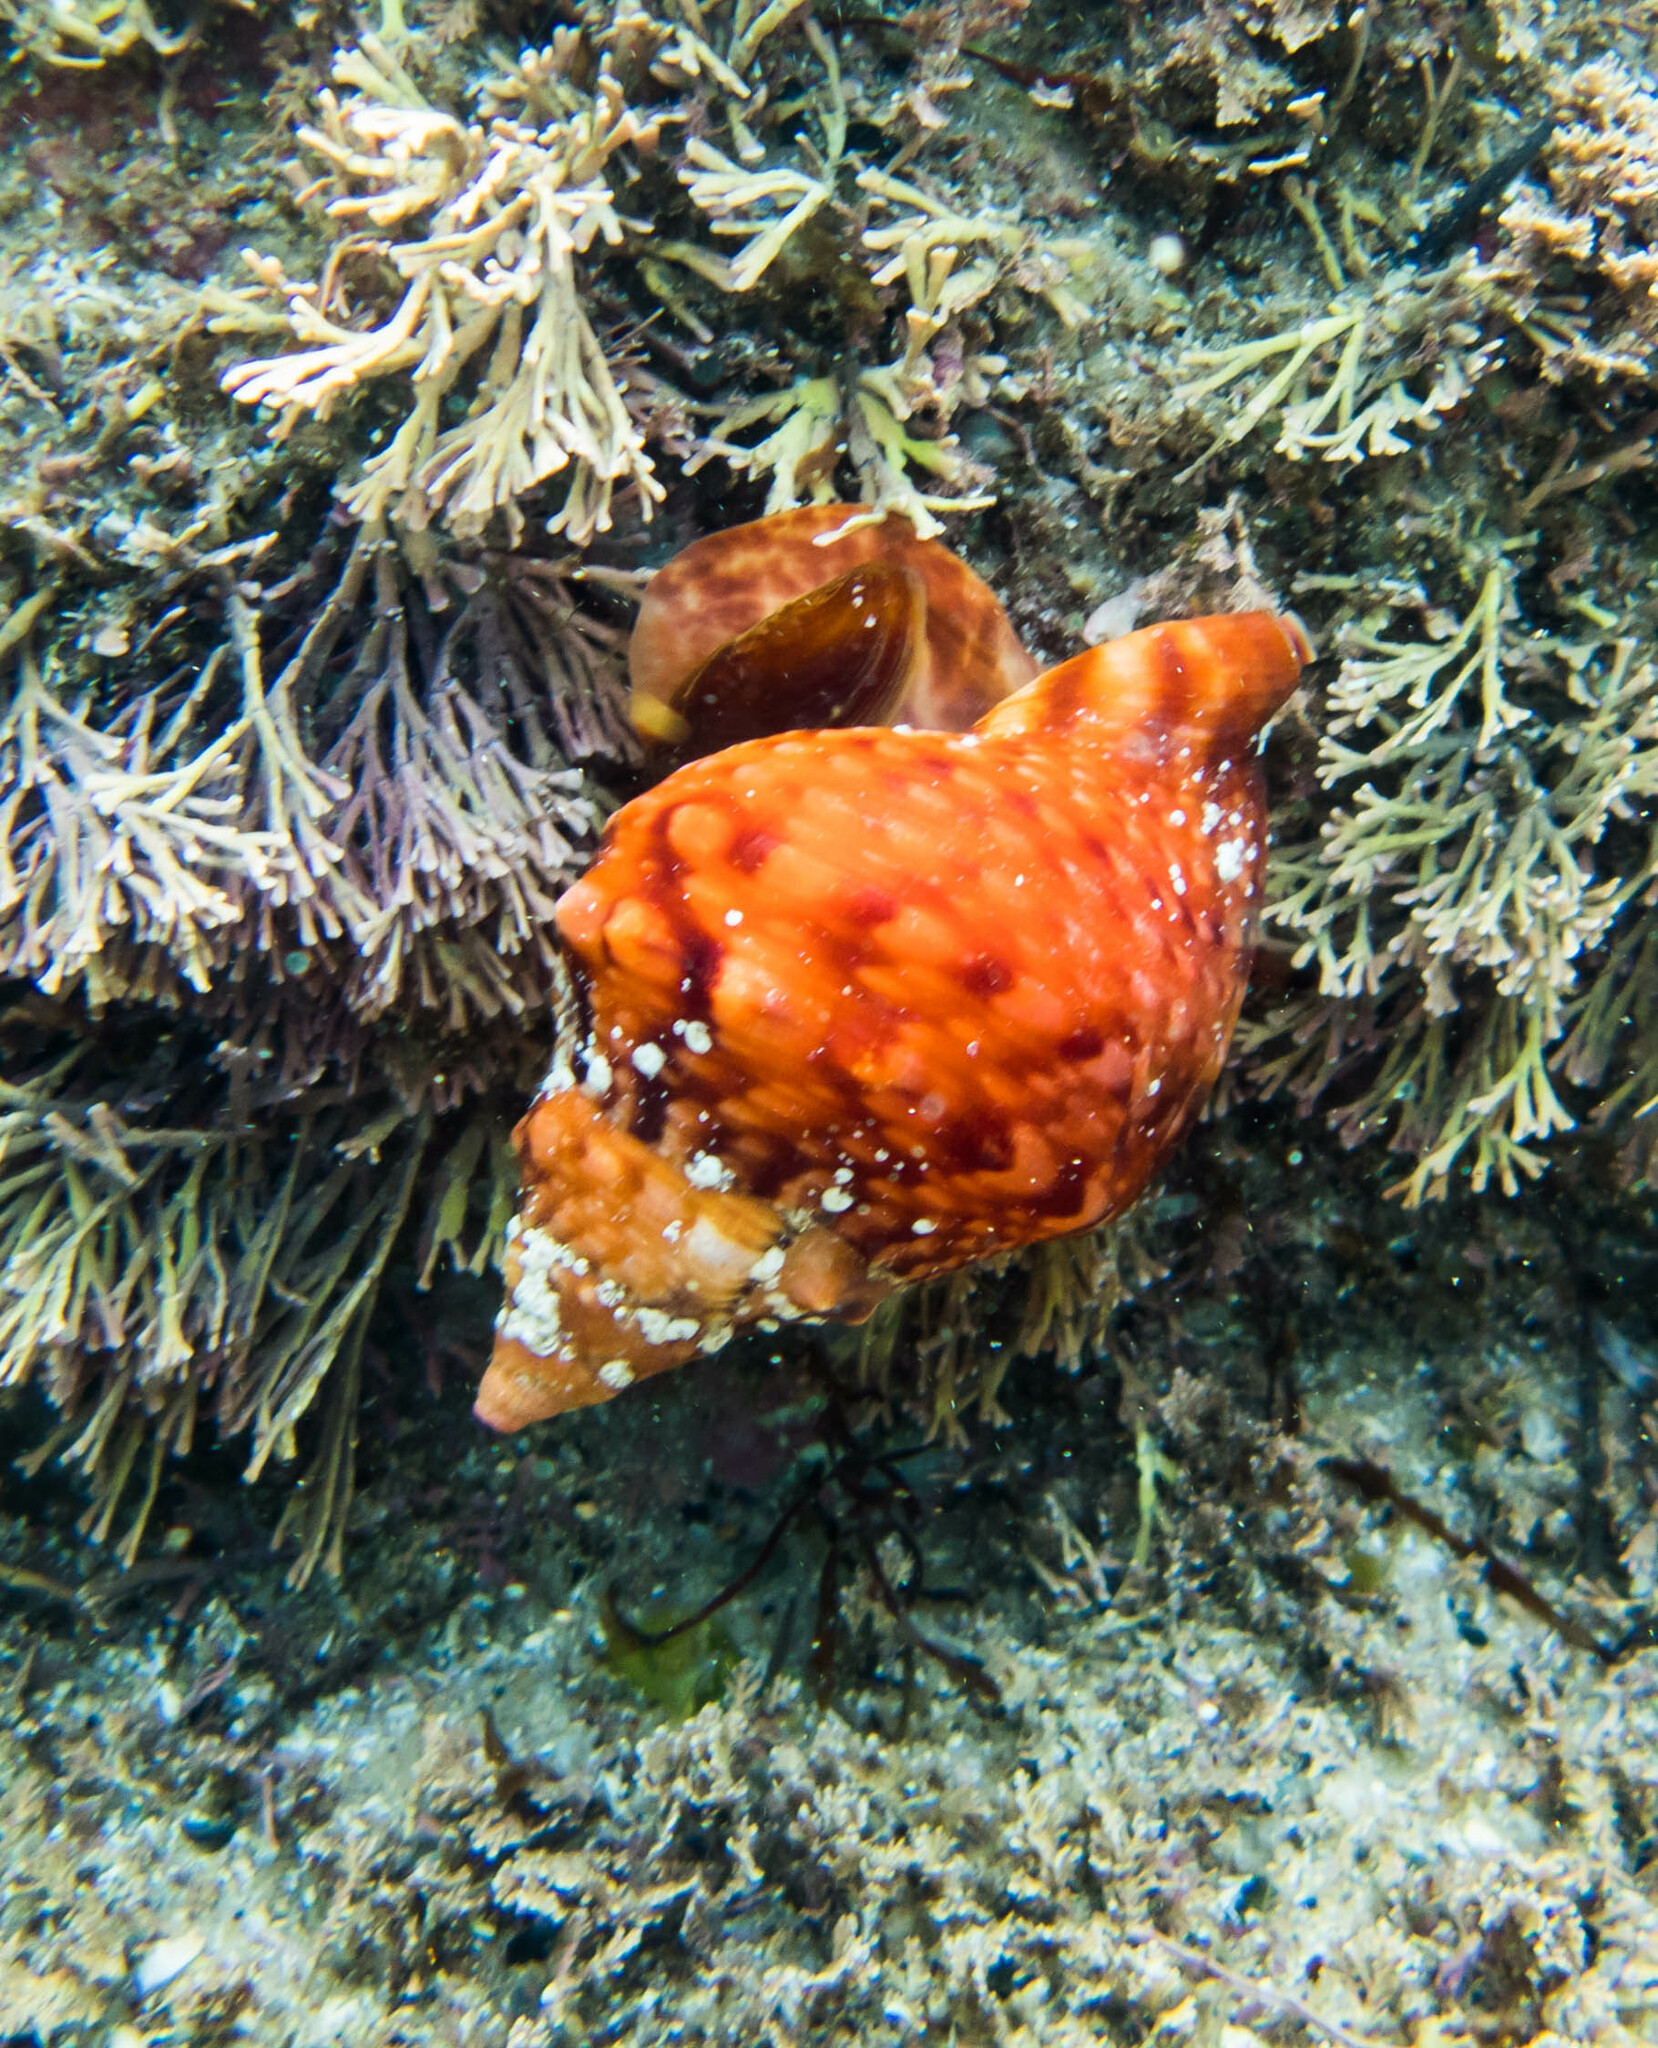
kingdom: Animalia
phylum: Mollusca
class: Gastropoda
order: Littorinimorpha
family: Charoniidae
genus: Charonia
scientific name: Charonia lampas
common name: Knobbed triton
